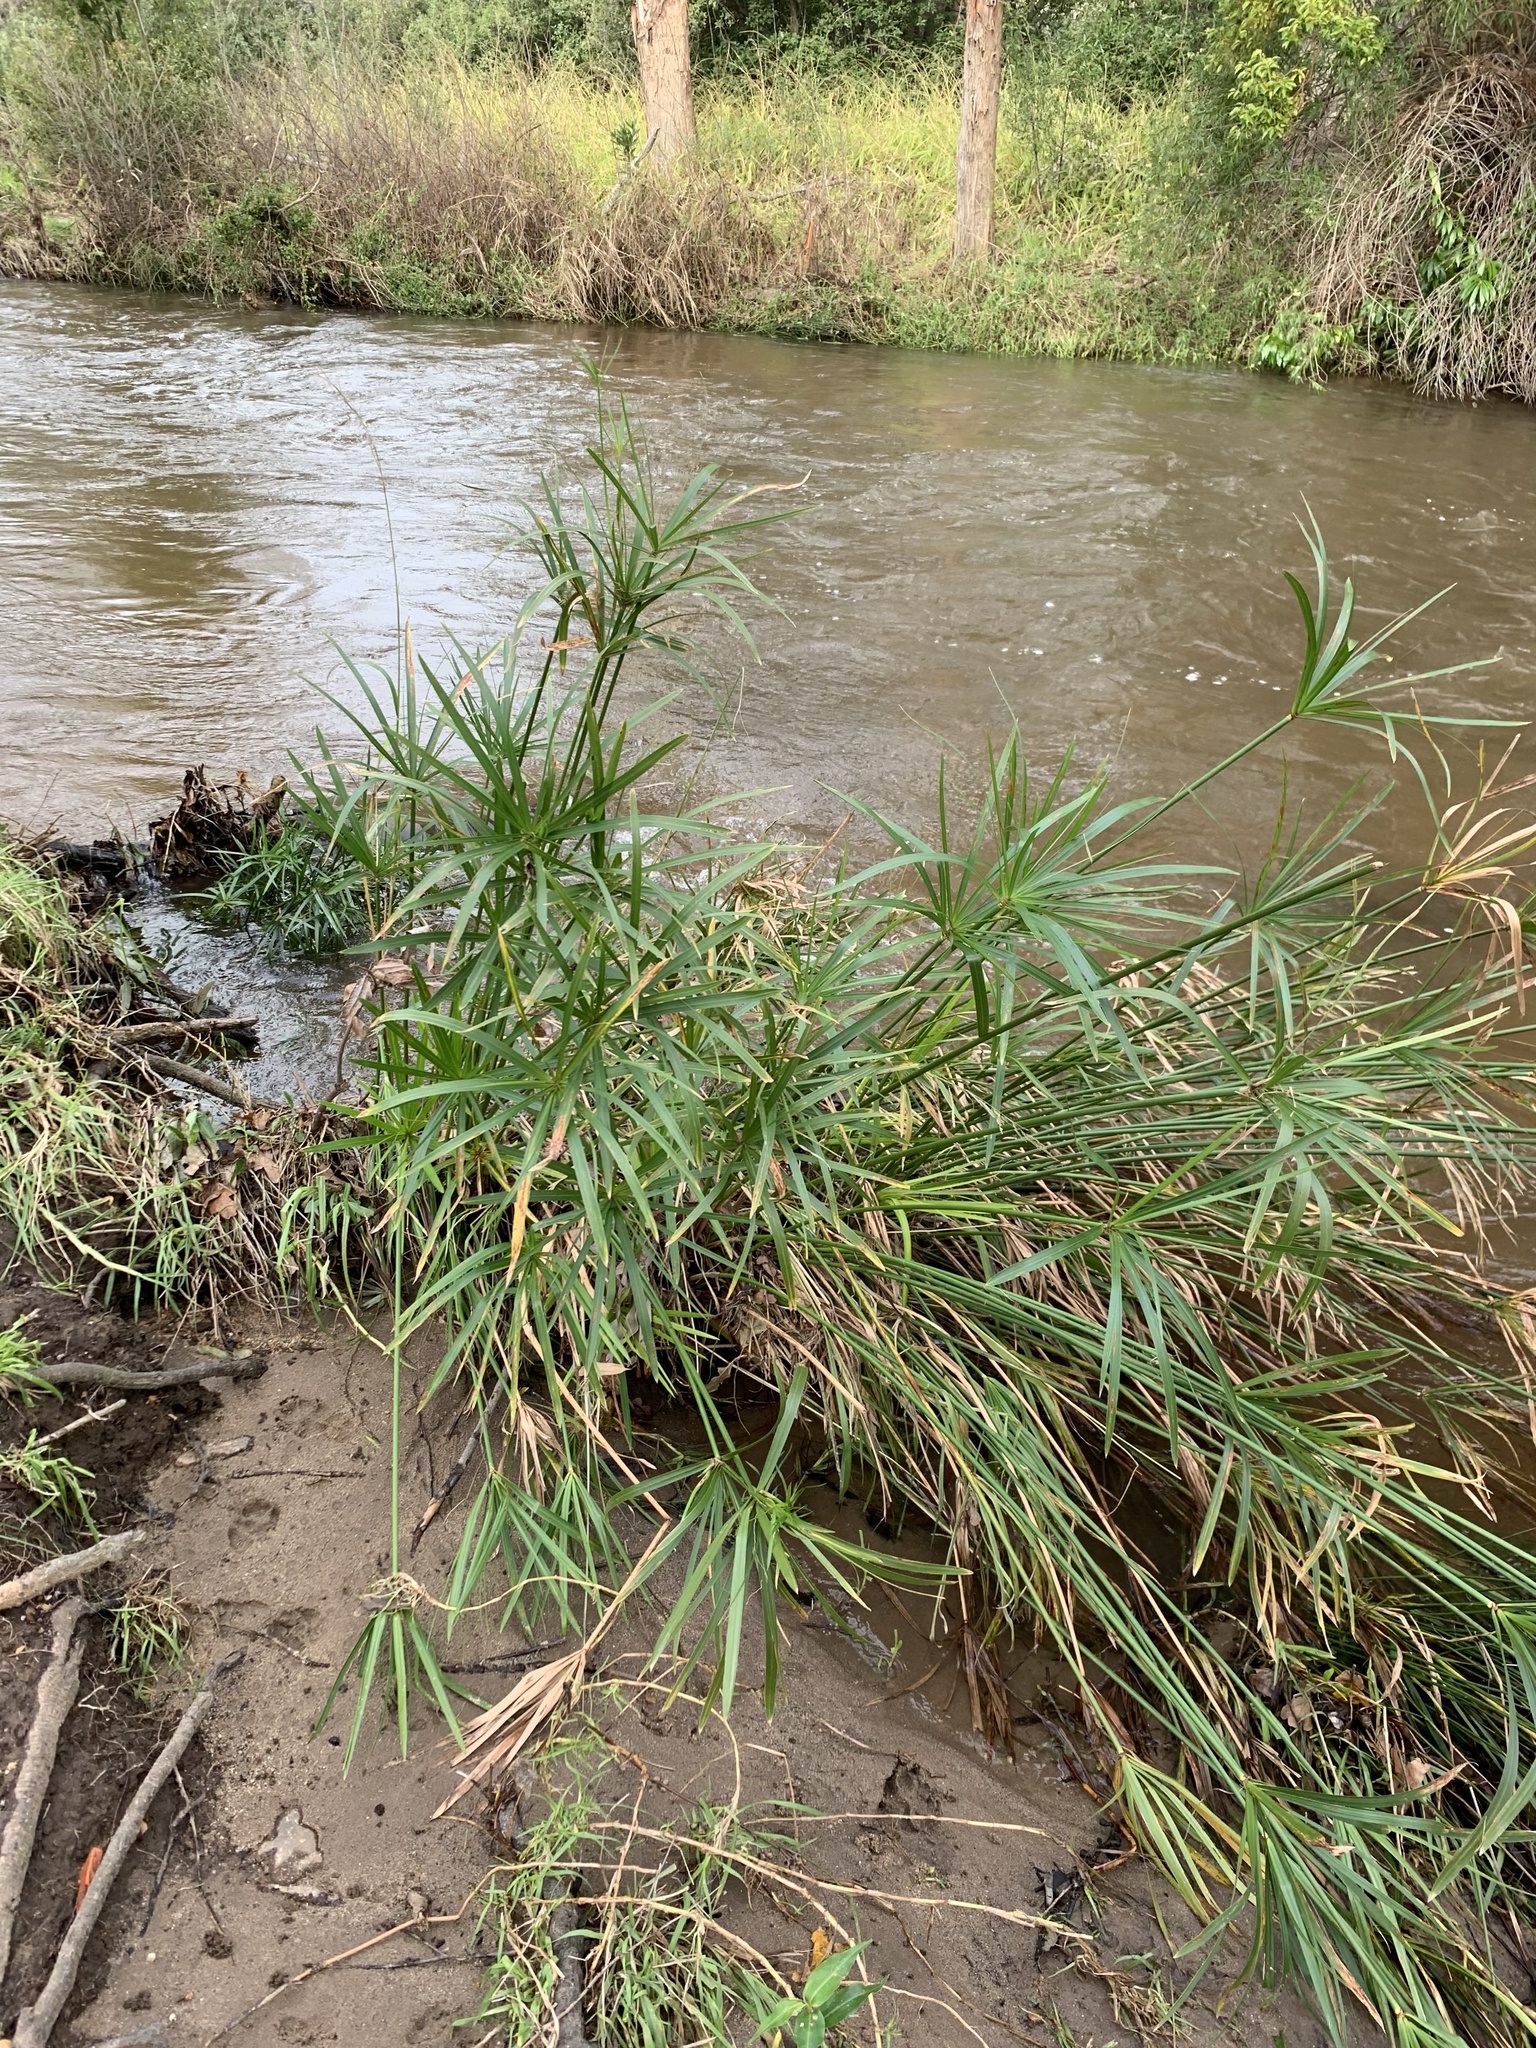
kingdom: Plantae
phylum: Tracheophyta
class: Liliopsida
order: Poales
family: Cyperaceae
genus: Cyperus
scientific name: Cyperus textilis
